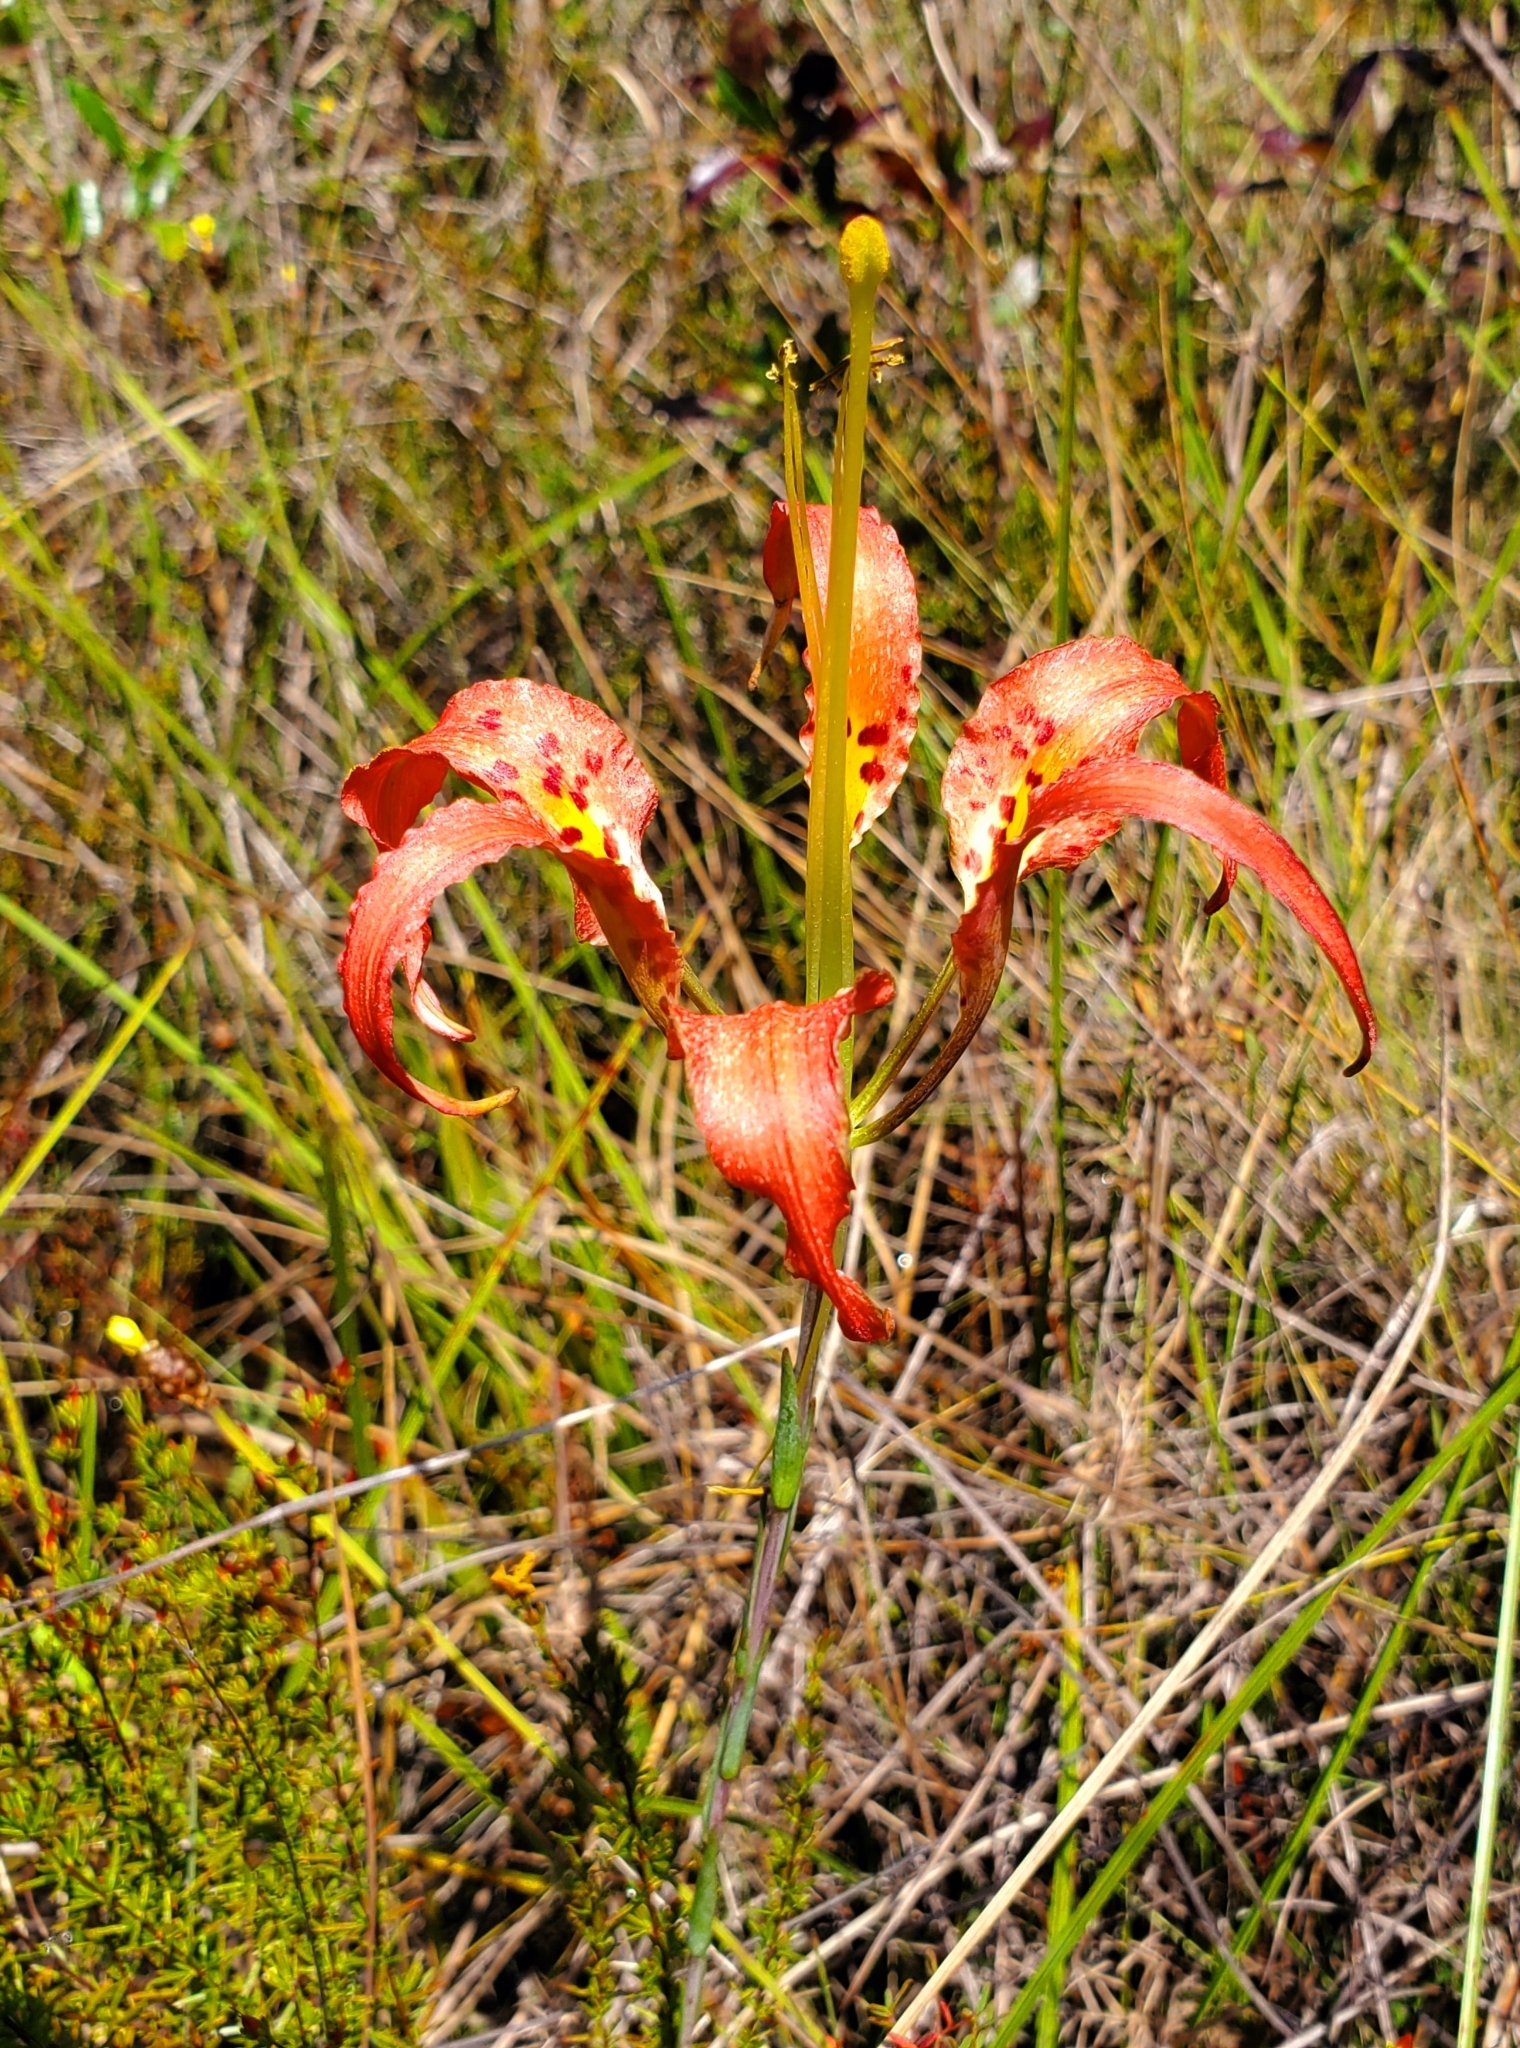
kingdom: Plantae
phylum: Tracheophyta
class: Liliopsida
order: Liliales
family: Liliaceae
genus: Lilium
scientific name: Lilium catesbaei
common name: Catesby's lily
